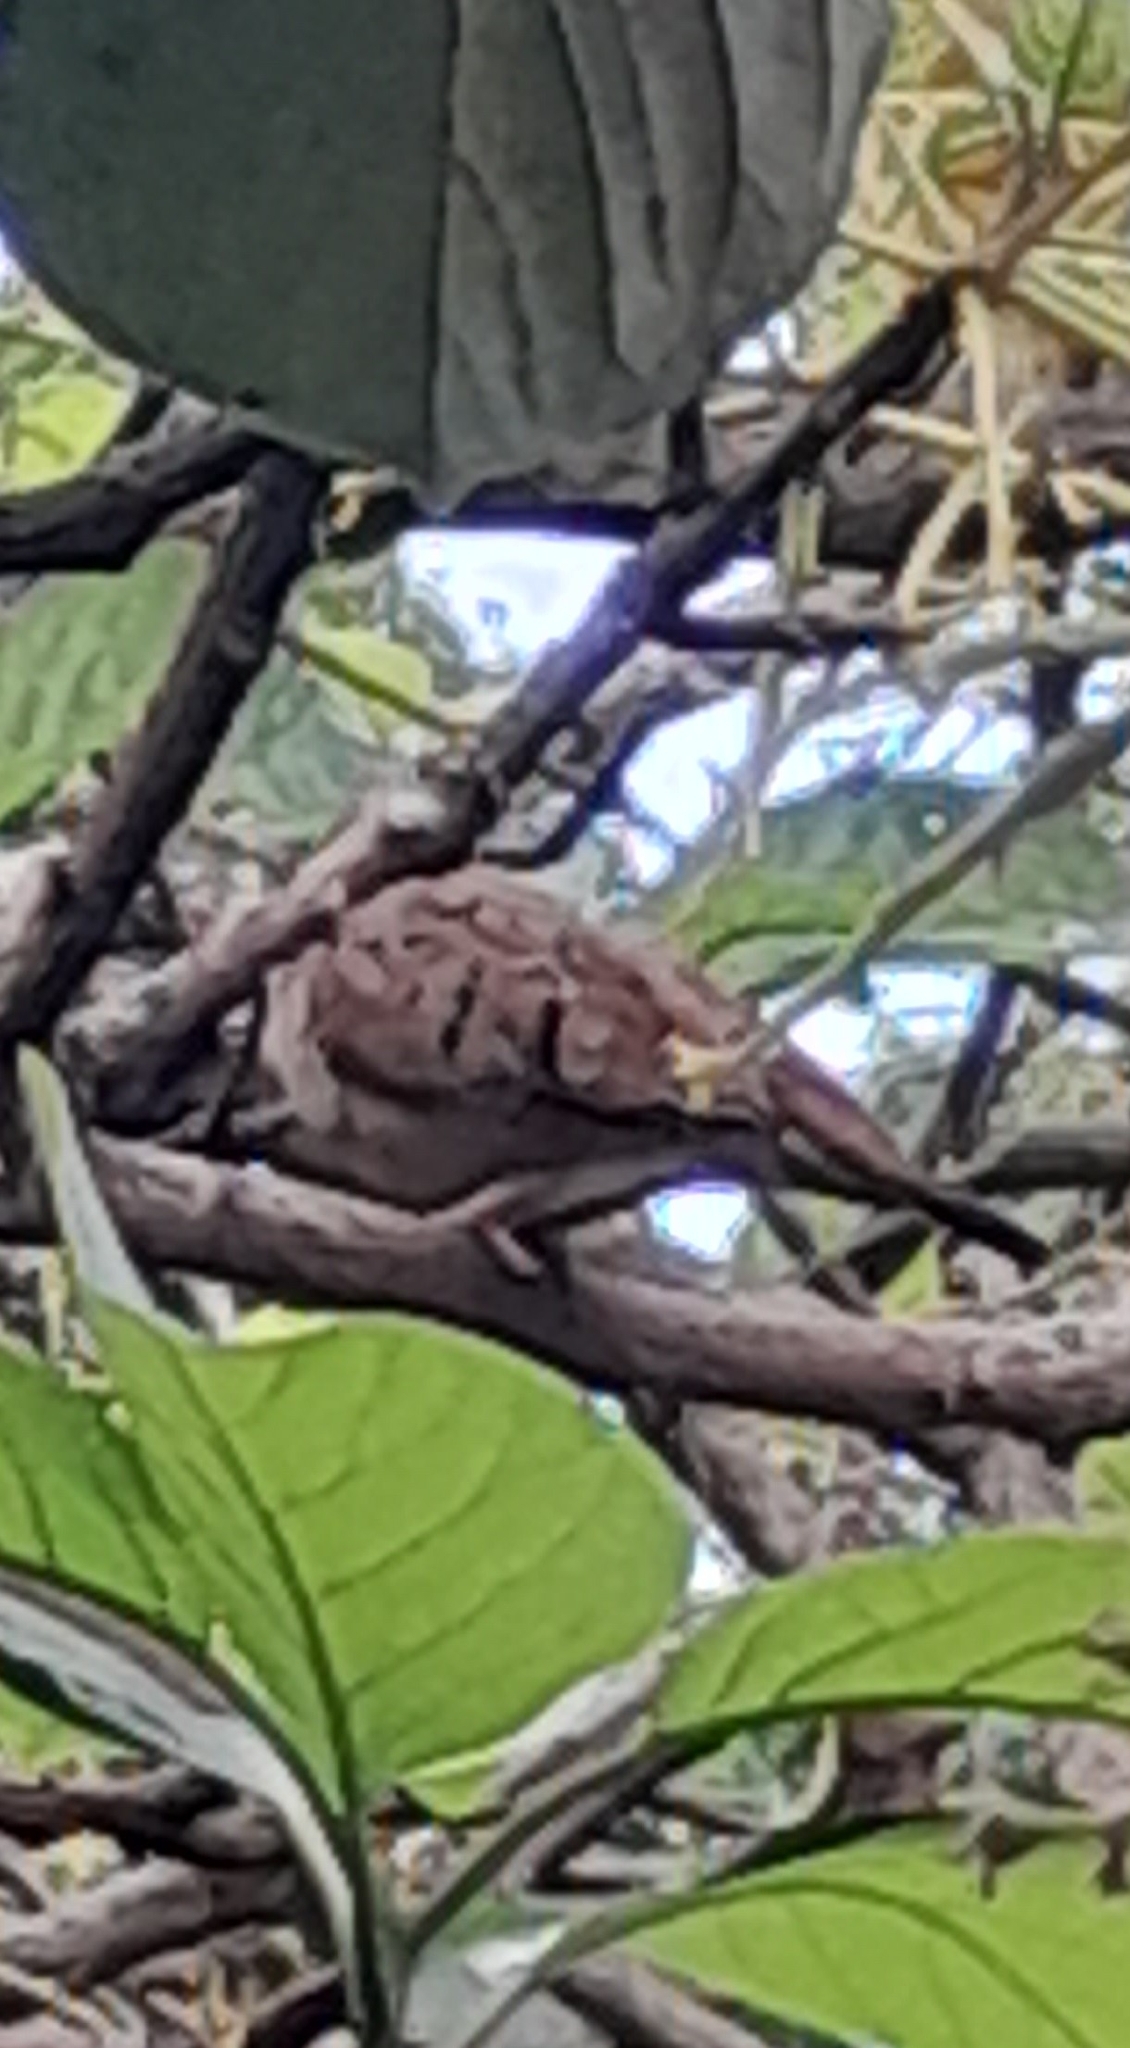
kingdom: Animalia
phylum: Chordata
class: Aves
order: Columbiformes
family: Columbidae
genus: Columbina
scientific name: Columbina talpacoti
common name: Ruddy ground dove
